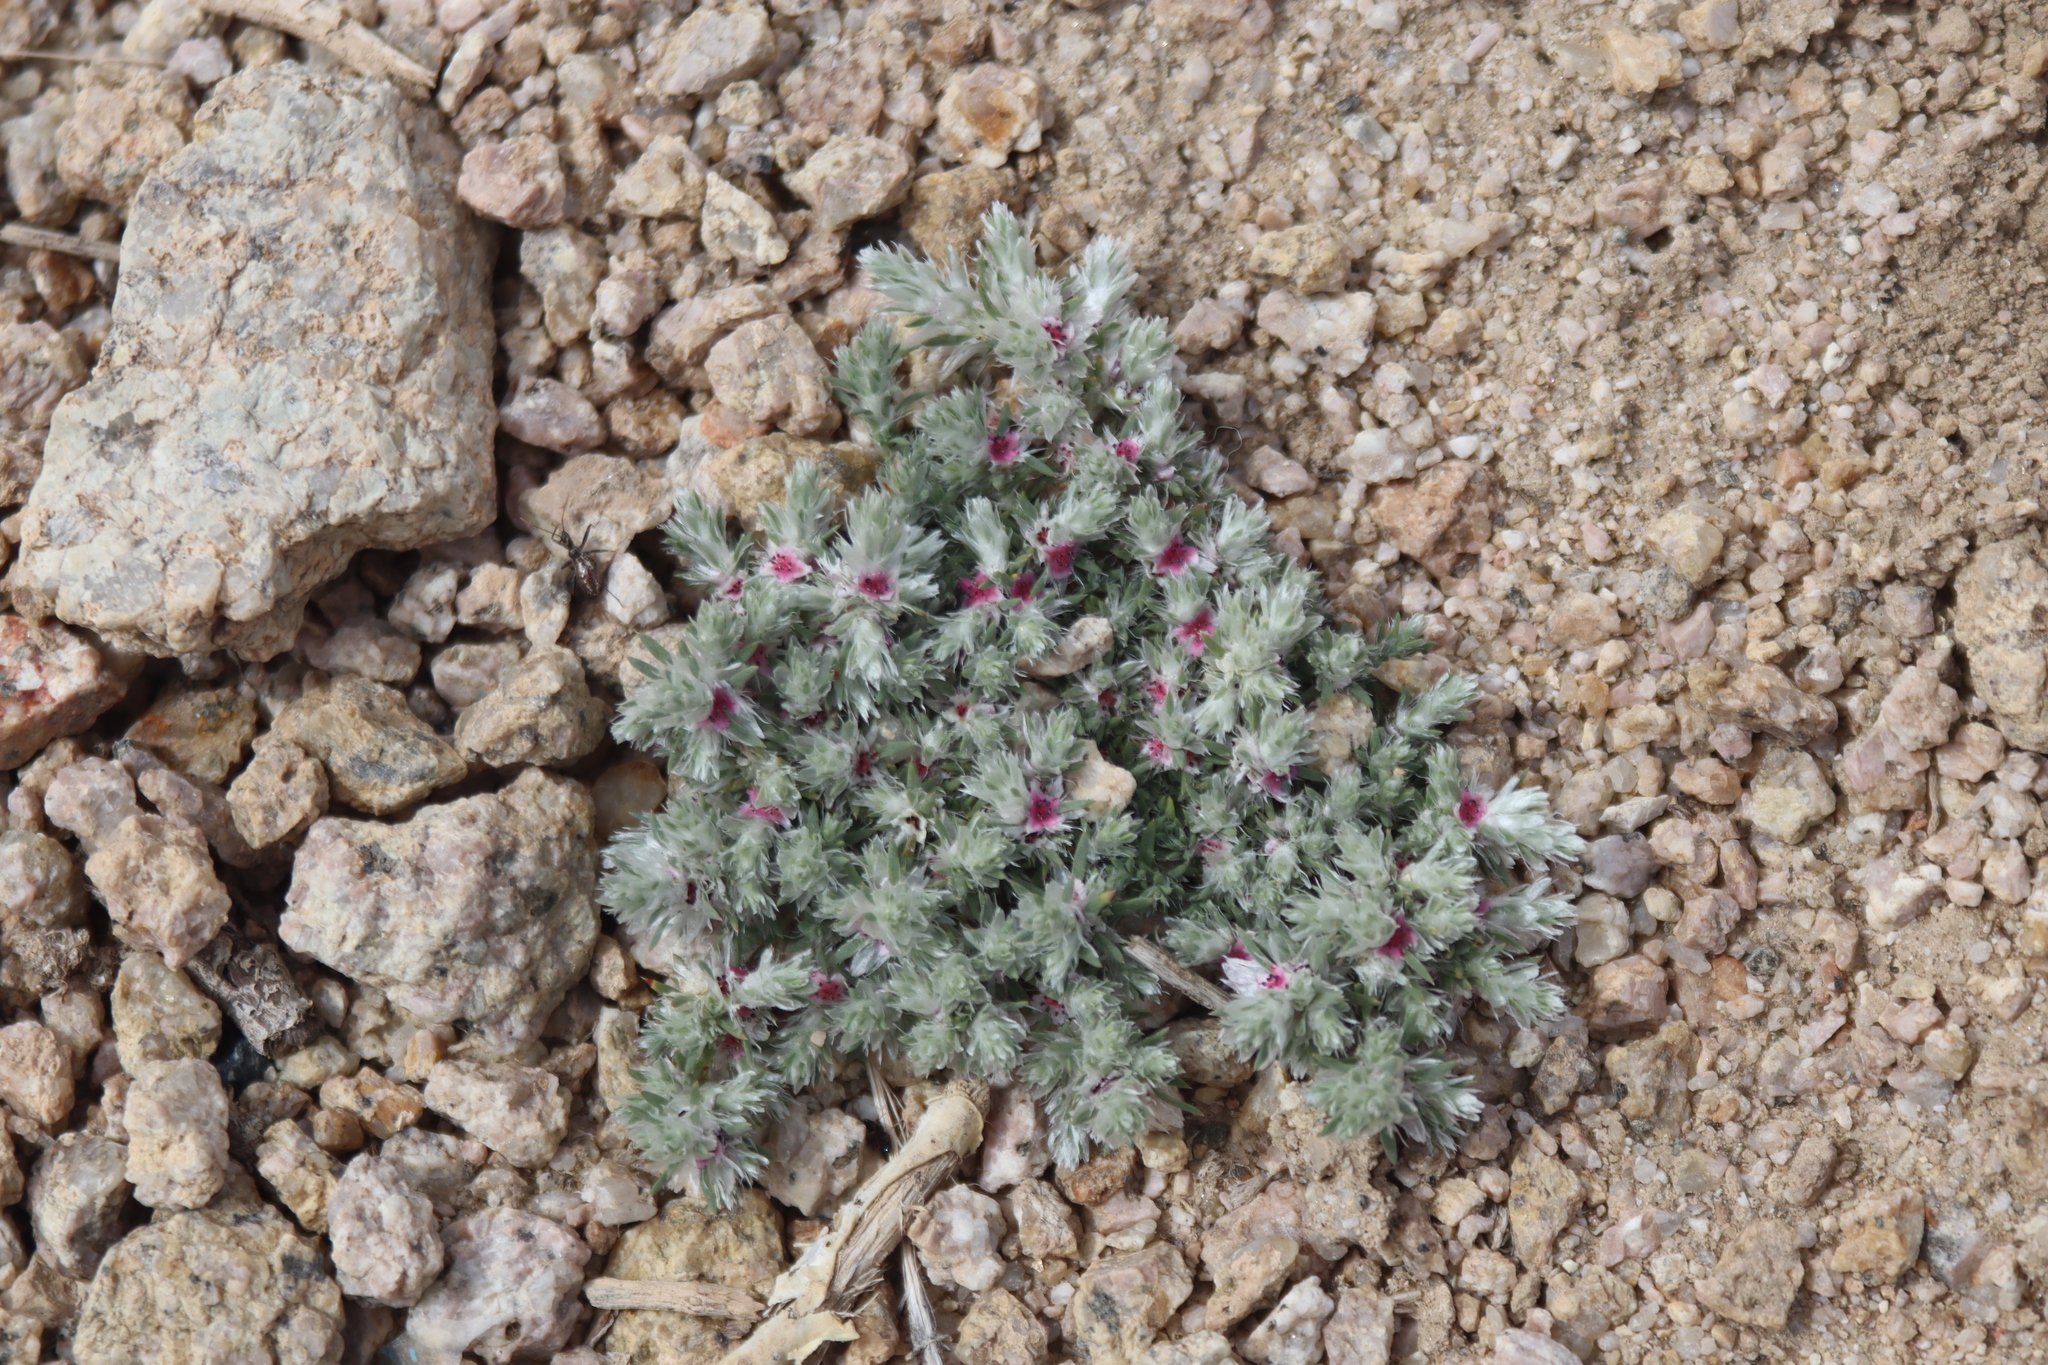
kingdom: Plantae
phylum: Tracheophyta
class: Magnoliopsida
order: Caryophyllales
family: Polygonaceae
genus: Polygonum
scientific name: Polygonum paronychioides
